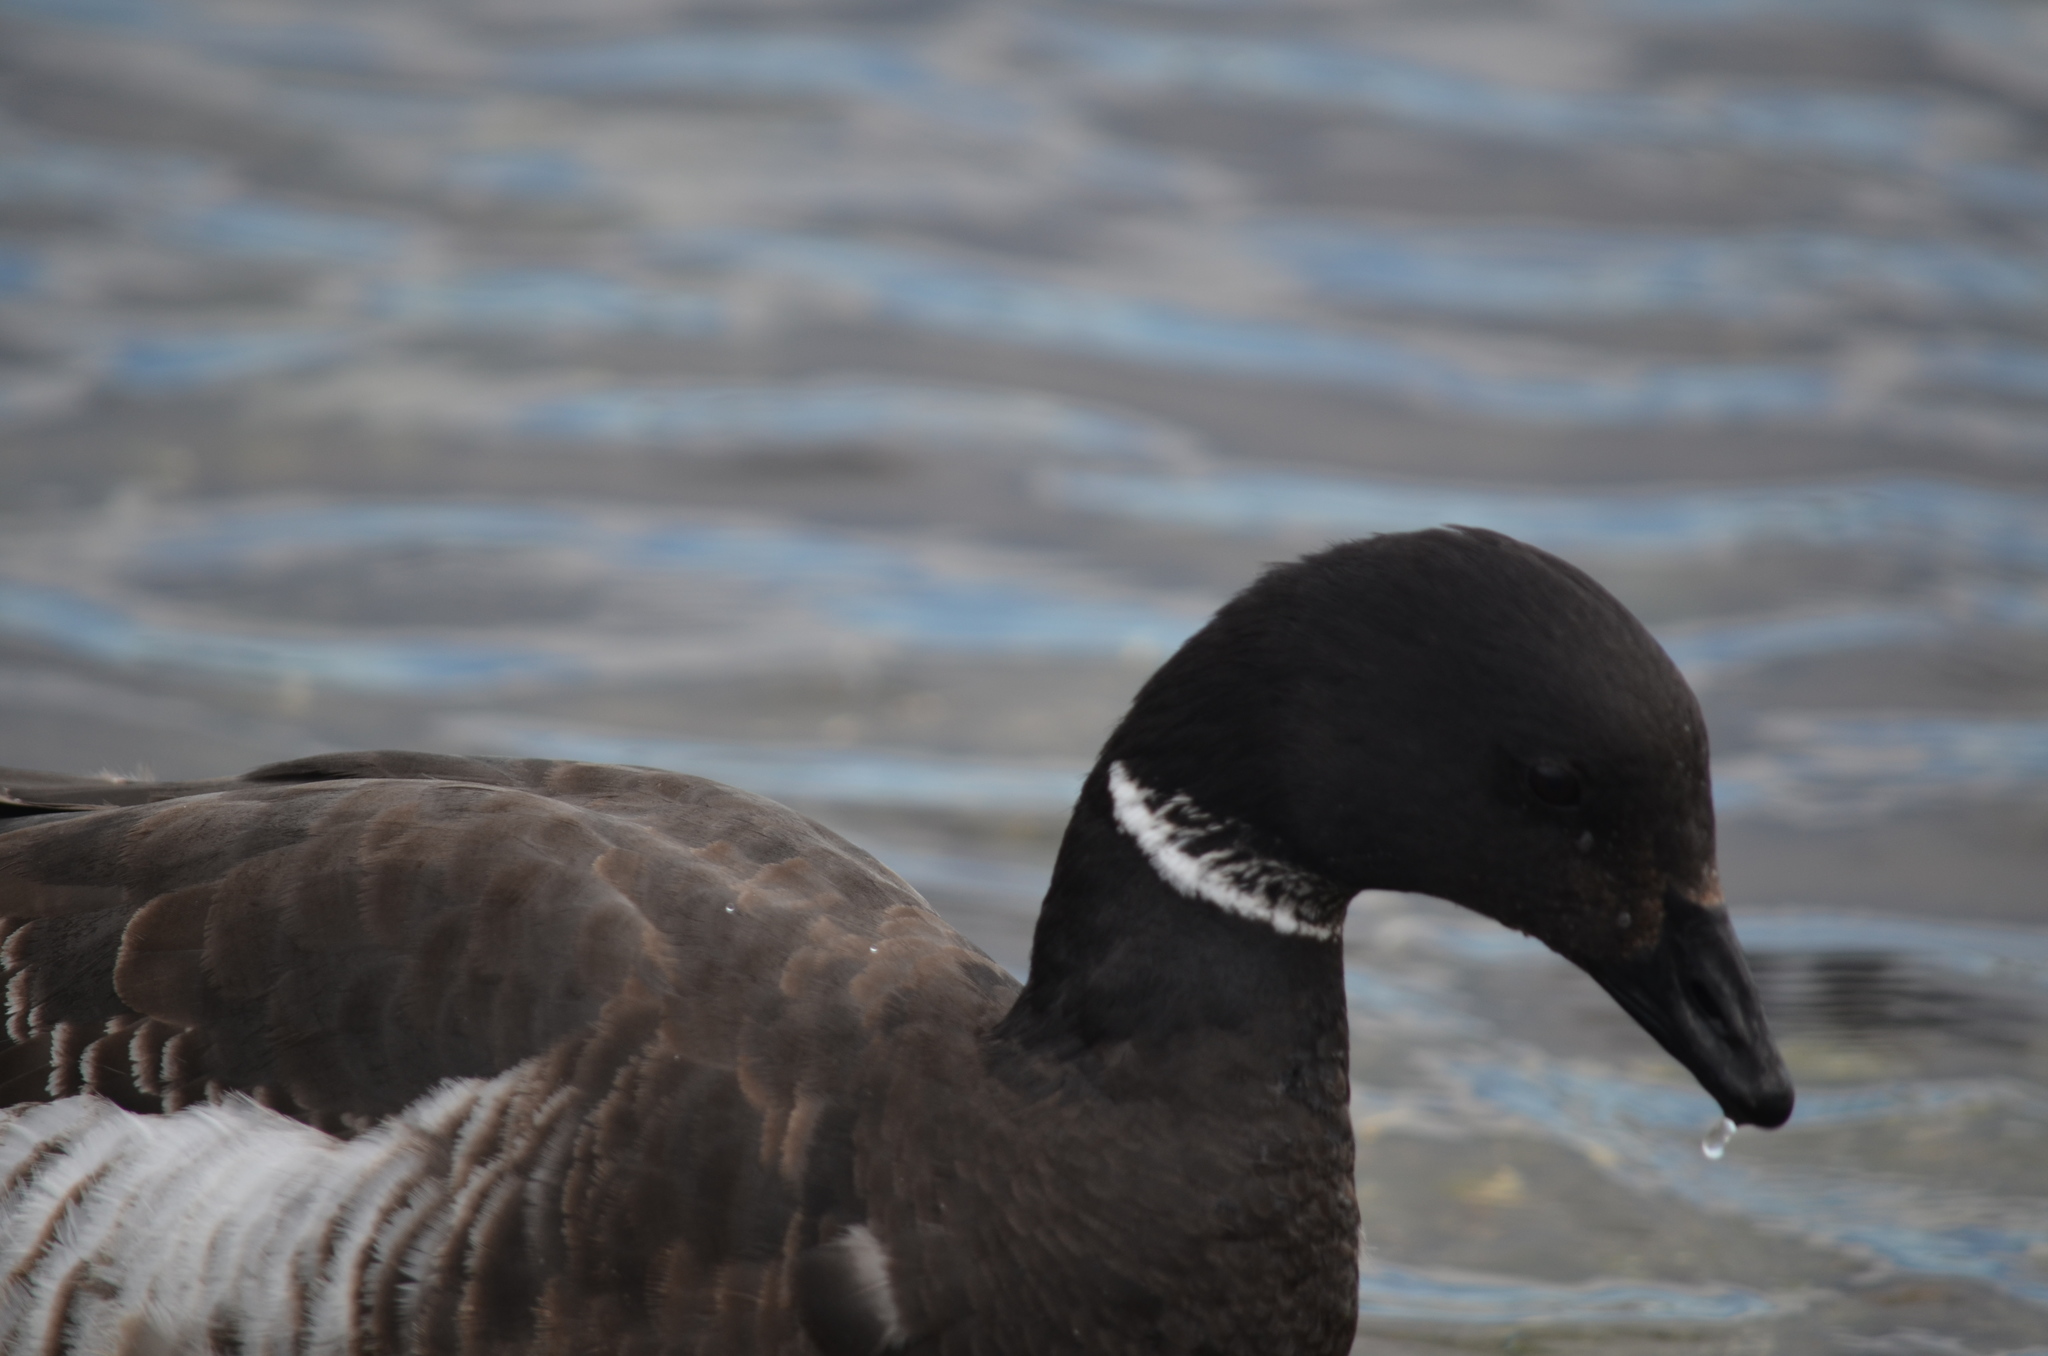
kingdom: Animalia
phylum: Chordata
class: Aves
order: Anseriformes
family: Anatidae
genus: Branta
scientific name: Branta bernicla
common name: Brant goose
